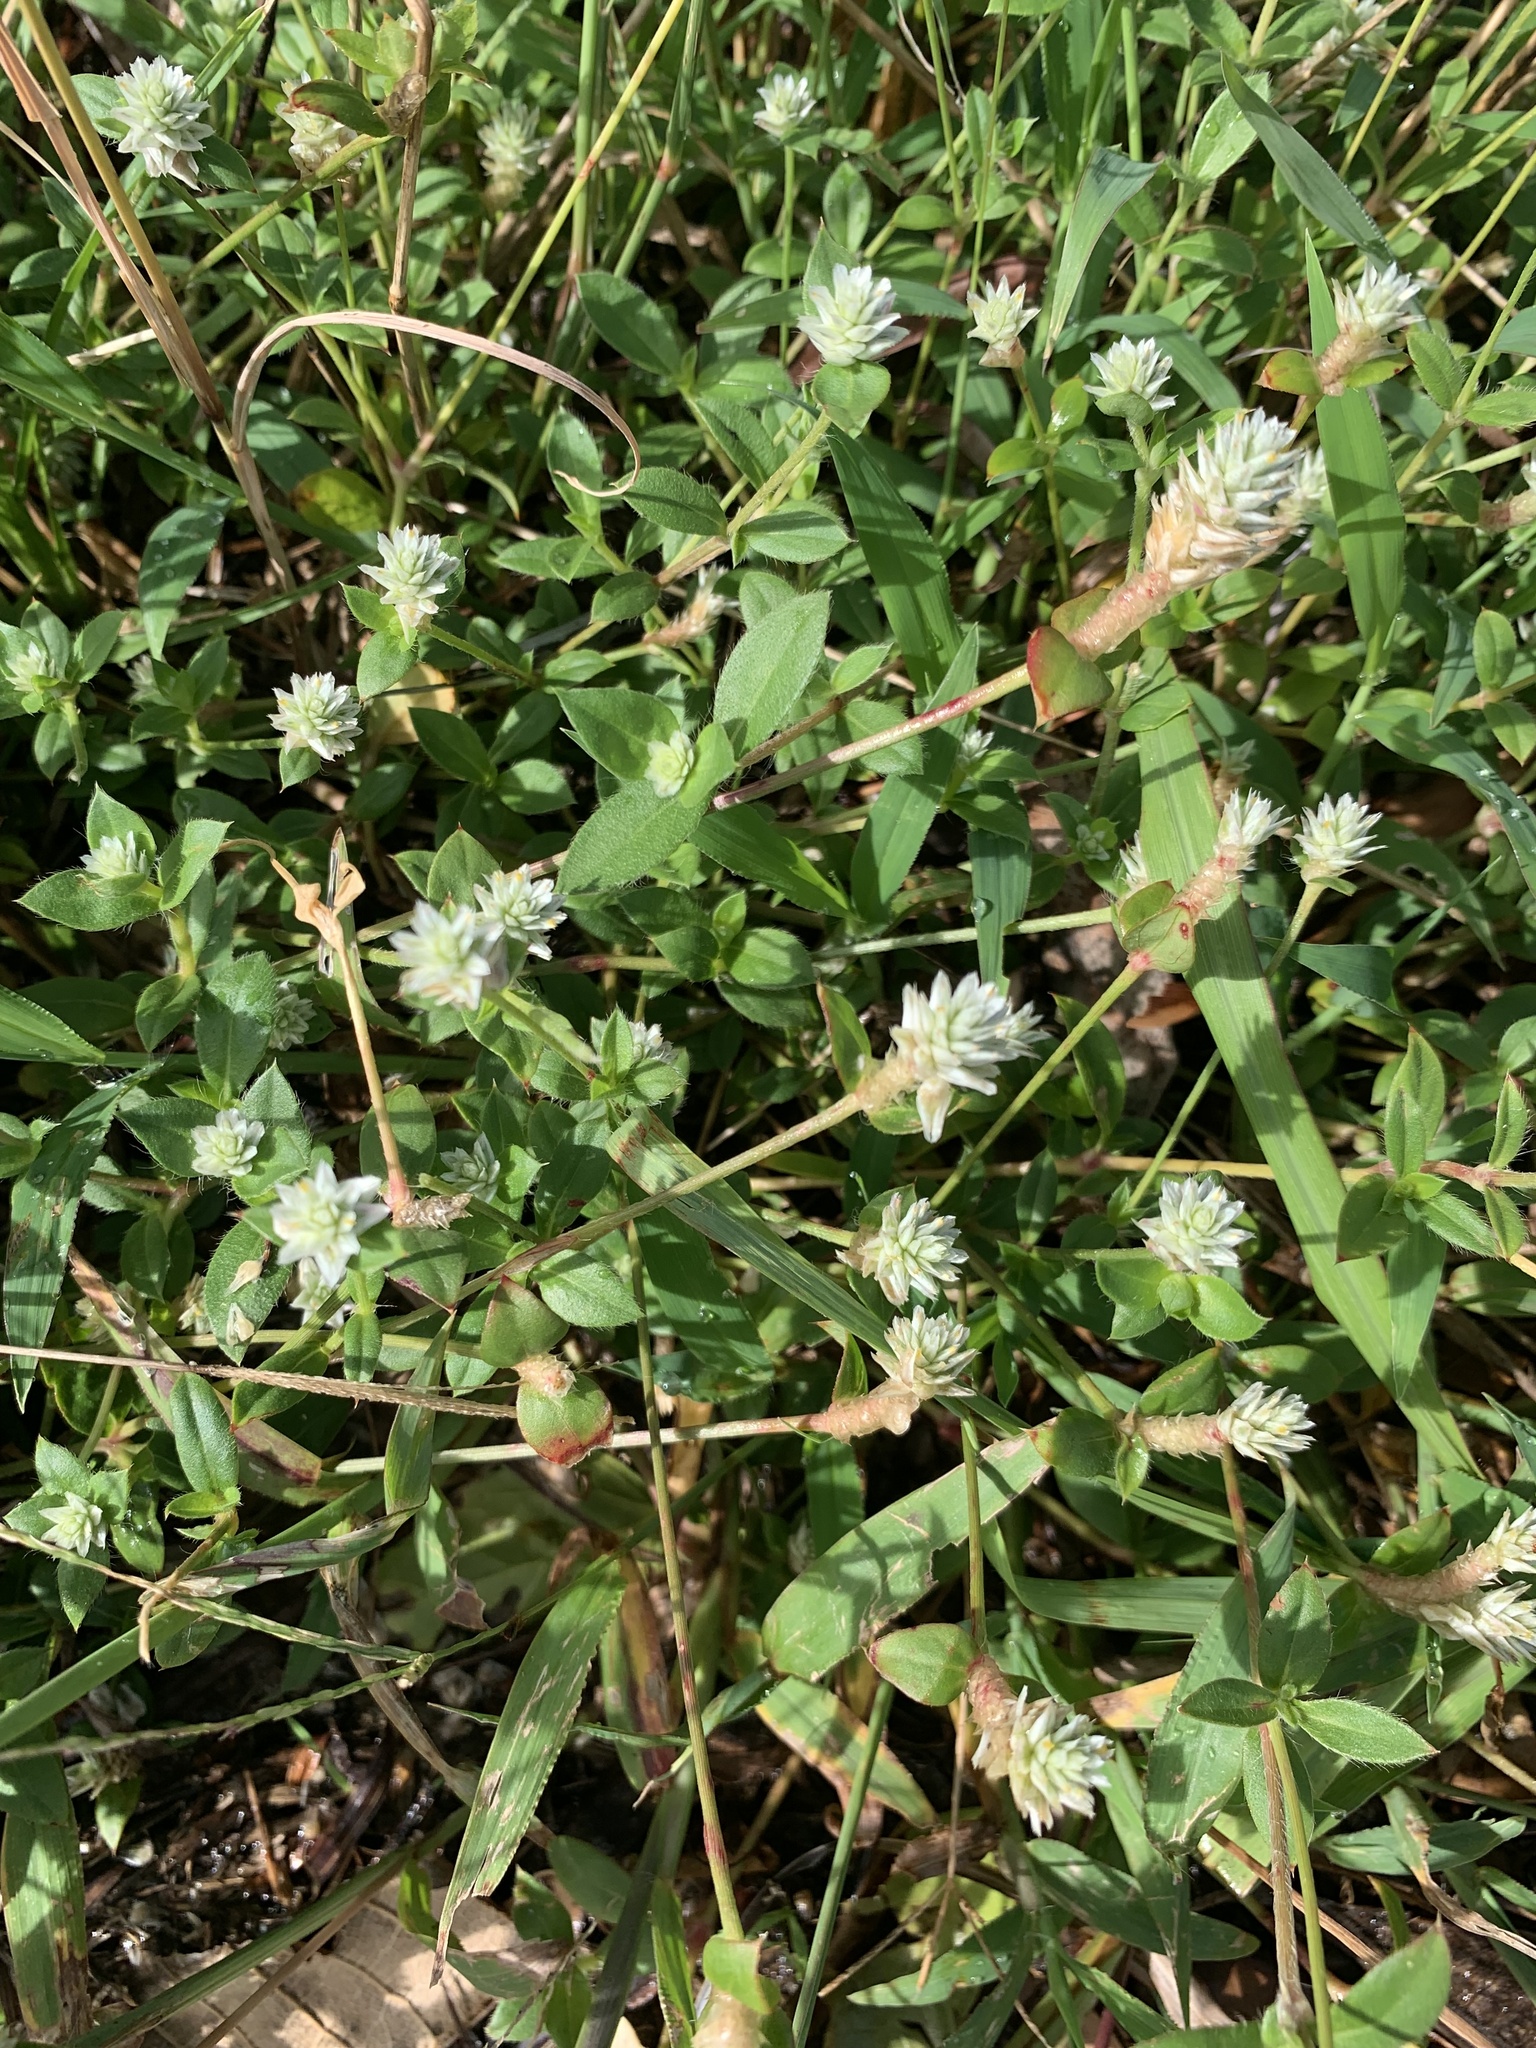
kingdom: Plantae
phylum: Tracheophyta
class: Magnoliopsida
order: Caryophyllales
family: Amaranthaceae
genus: Gomphrena
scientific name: Gomphrena celosioides
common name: Gomphrena-weed
